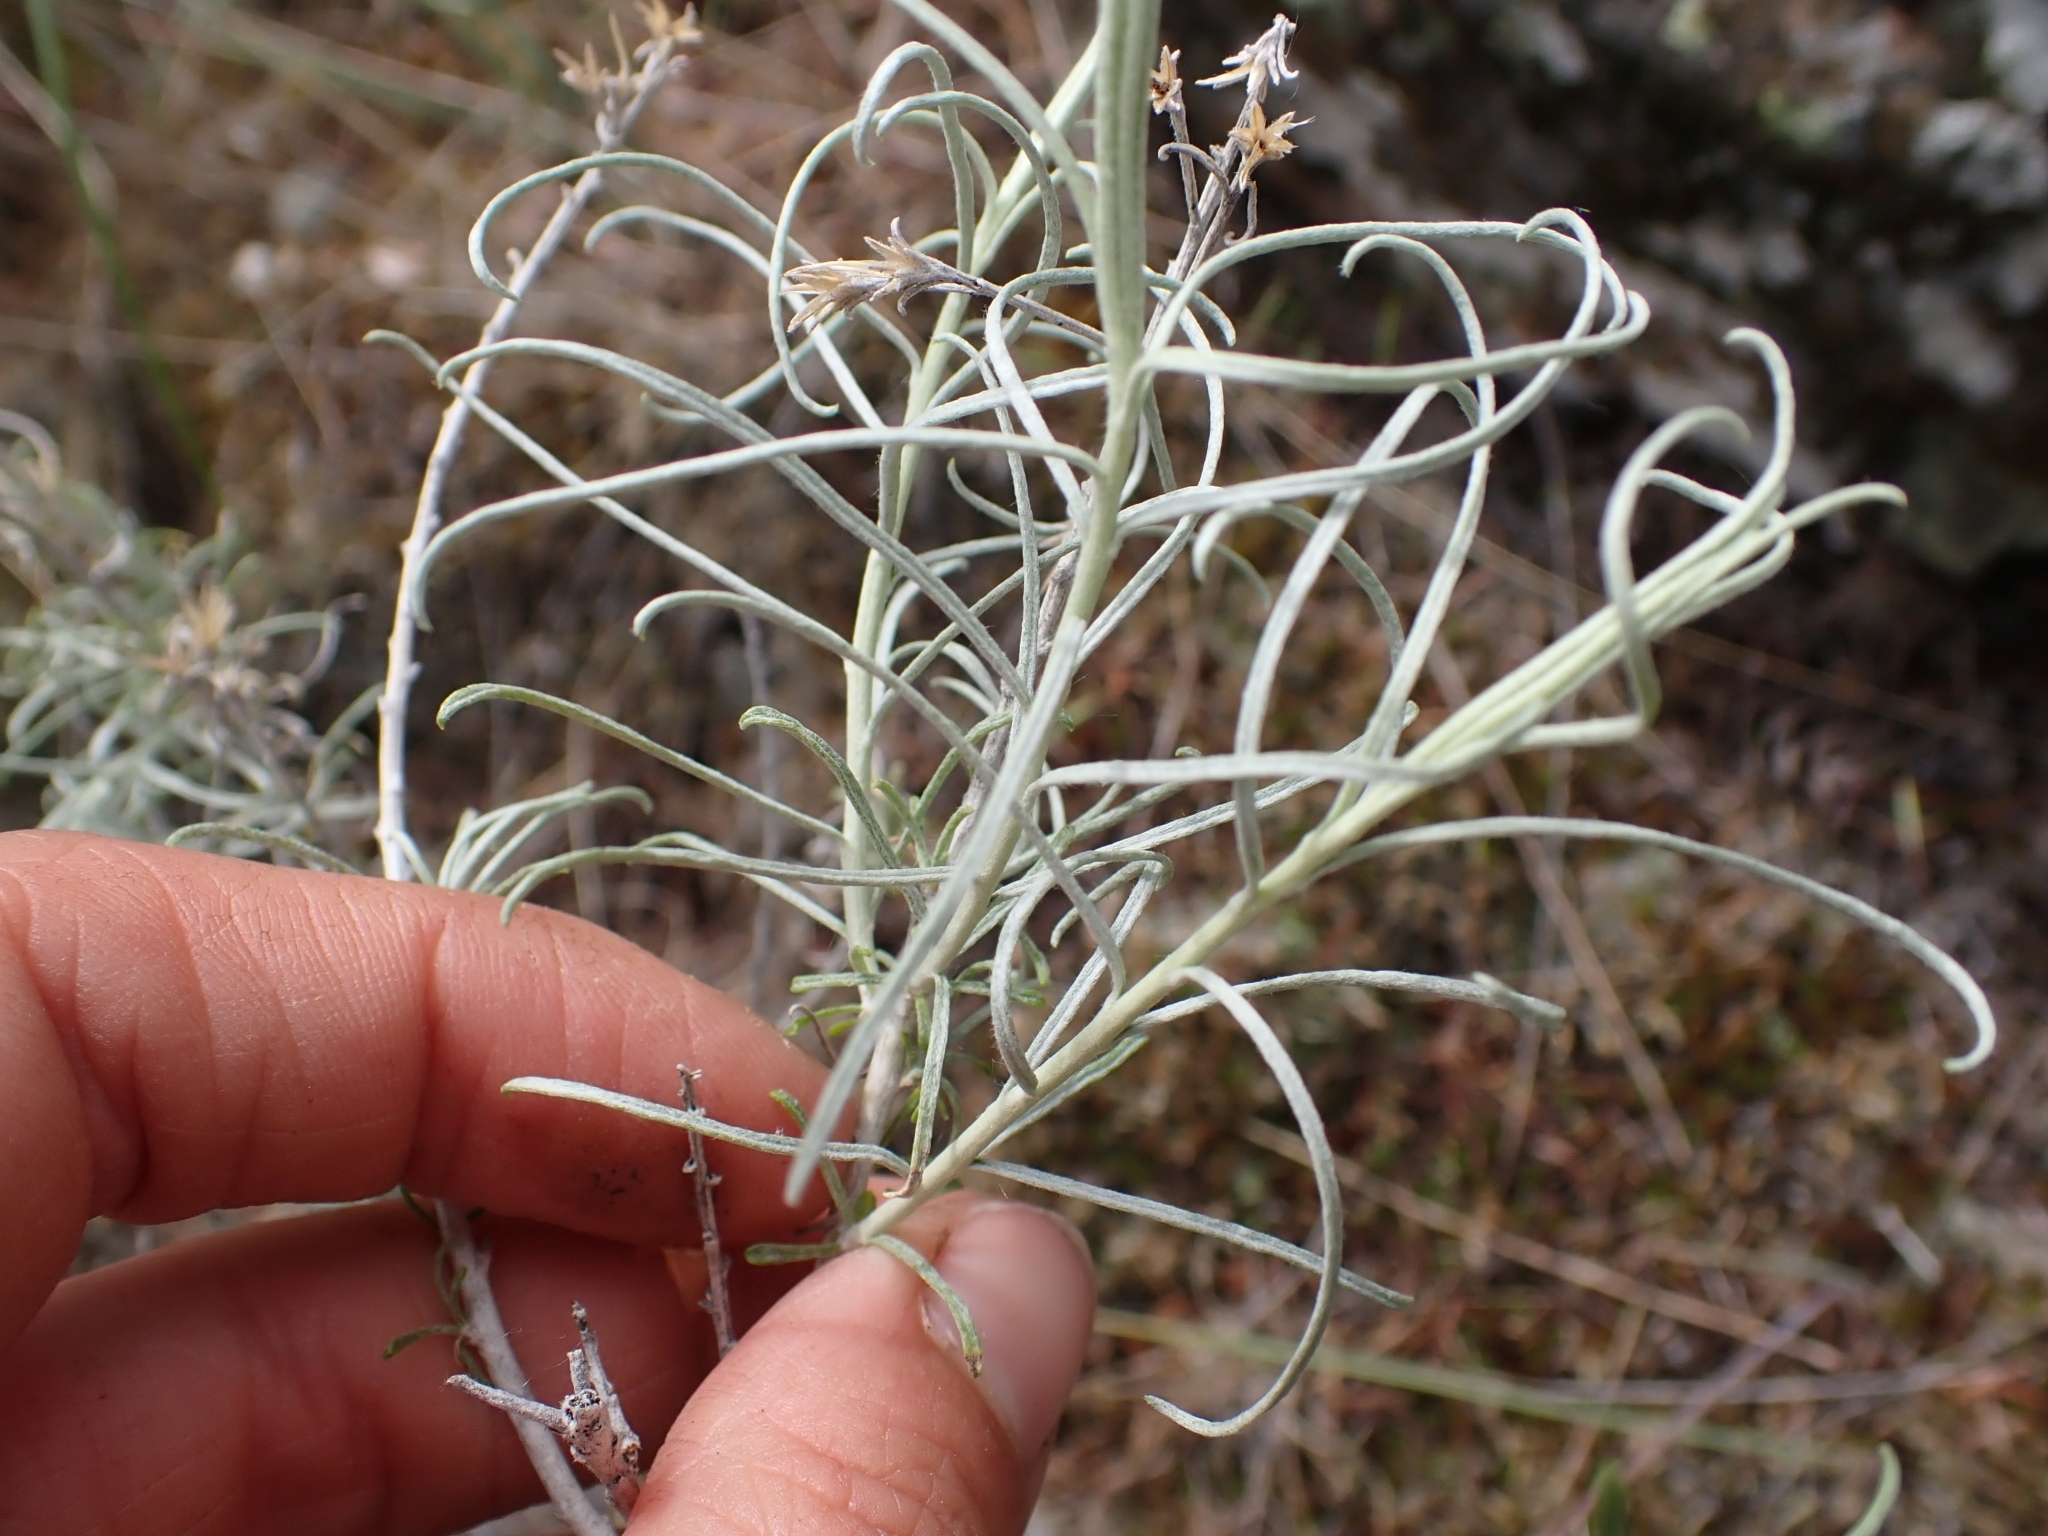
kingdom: Plantae
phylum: Tracheophyta
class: Magnoliopsida
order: Asterales
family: Asteraceae
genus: Ericameria
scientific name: Ericameria nauseosa
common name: Rubber rabbitbrush
